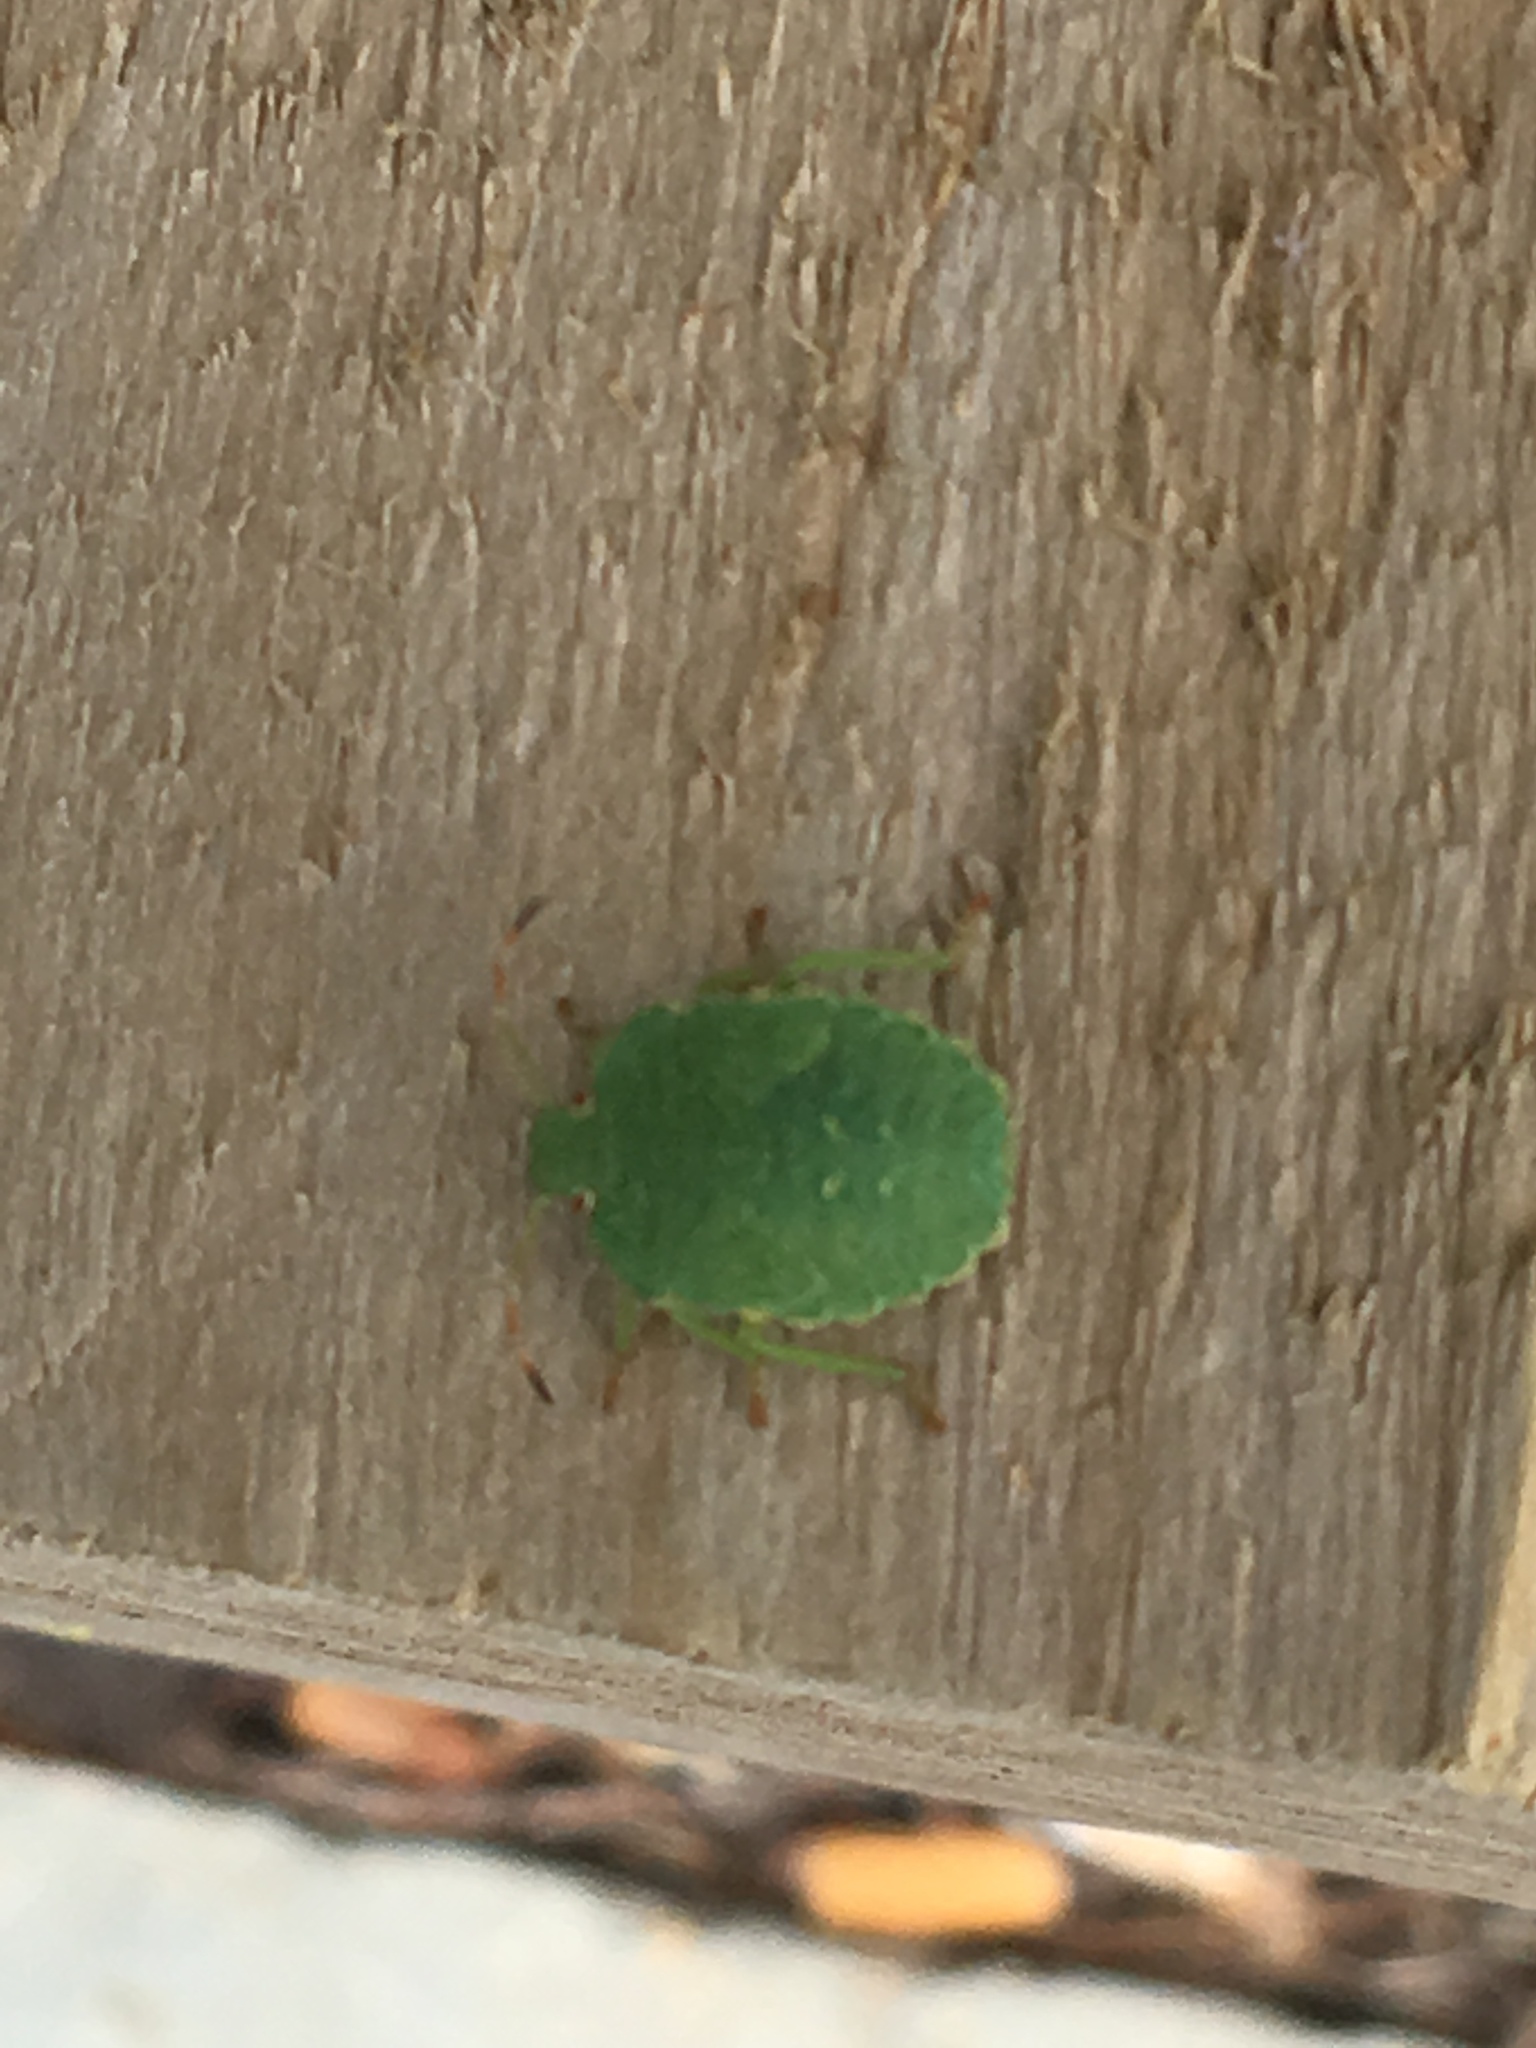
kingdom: Animalia
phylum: Arthropoda
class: Insecta
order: Hemiptera
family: Pentatomidae
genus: Palomena
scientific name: Palomena prasina
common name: Green shieldbug
